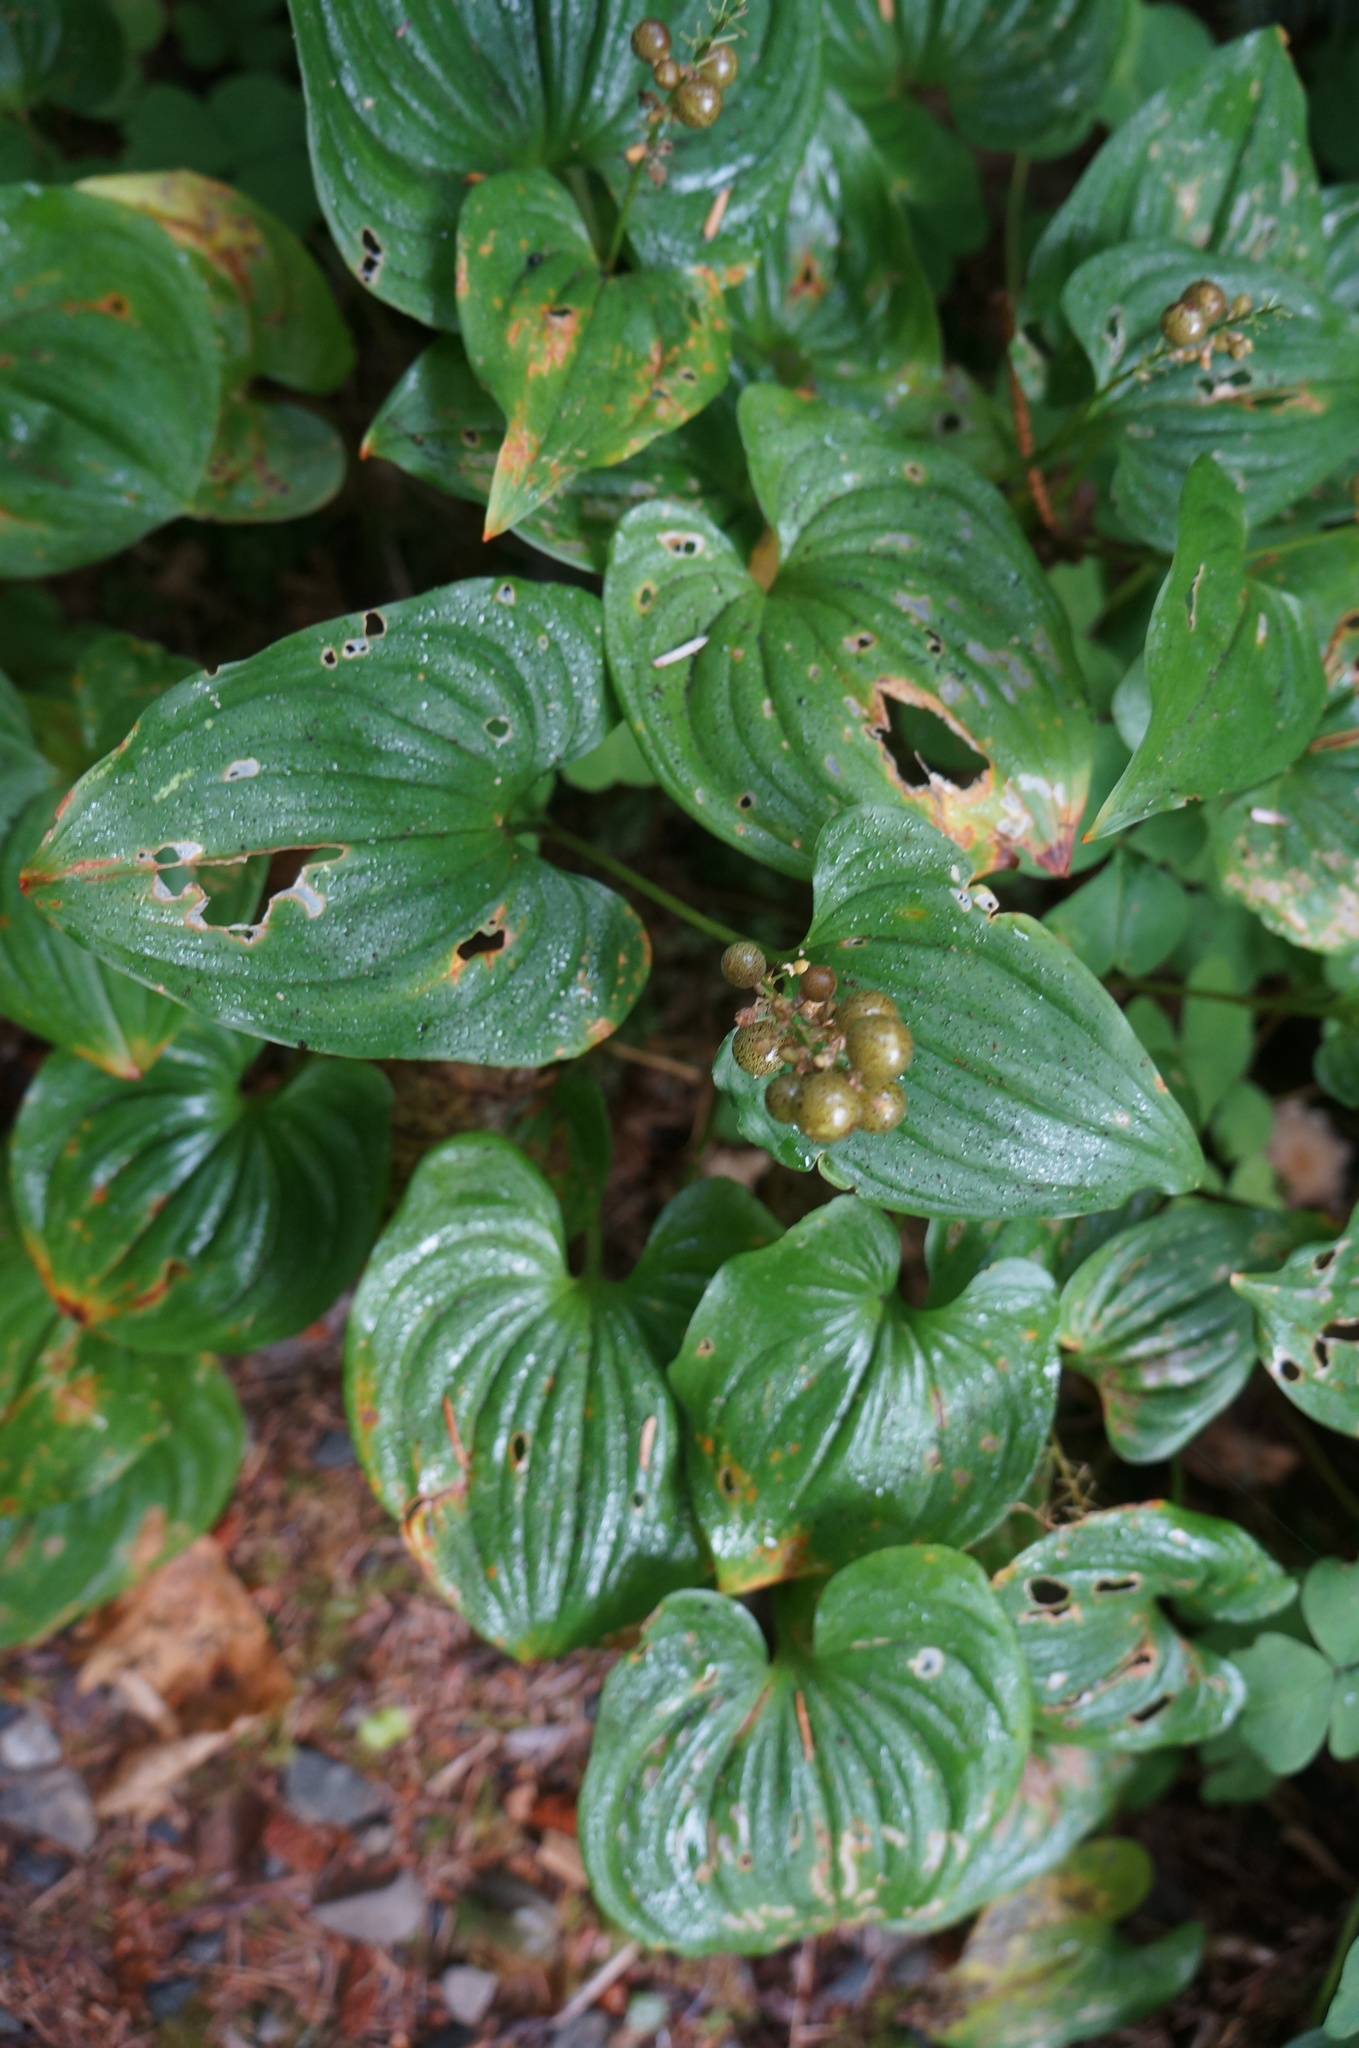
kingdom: Plantae
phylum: Tracheophyta
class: Liliopsida
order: Asparagales
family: Asparagaceae
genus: Maianthemum
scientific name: Maianthemum dilatatum
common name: False lily-of-the-valley
